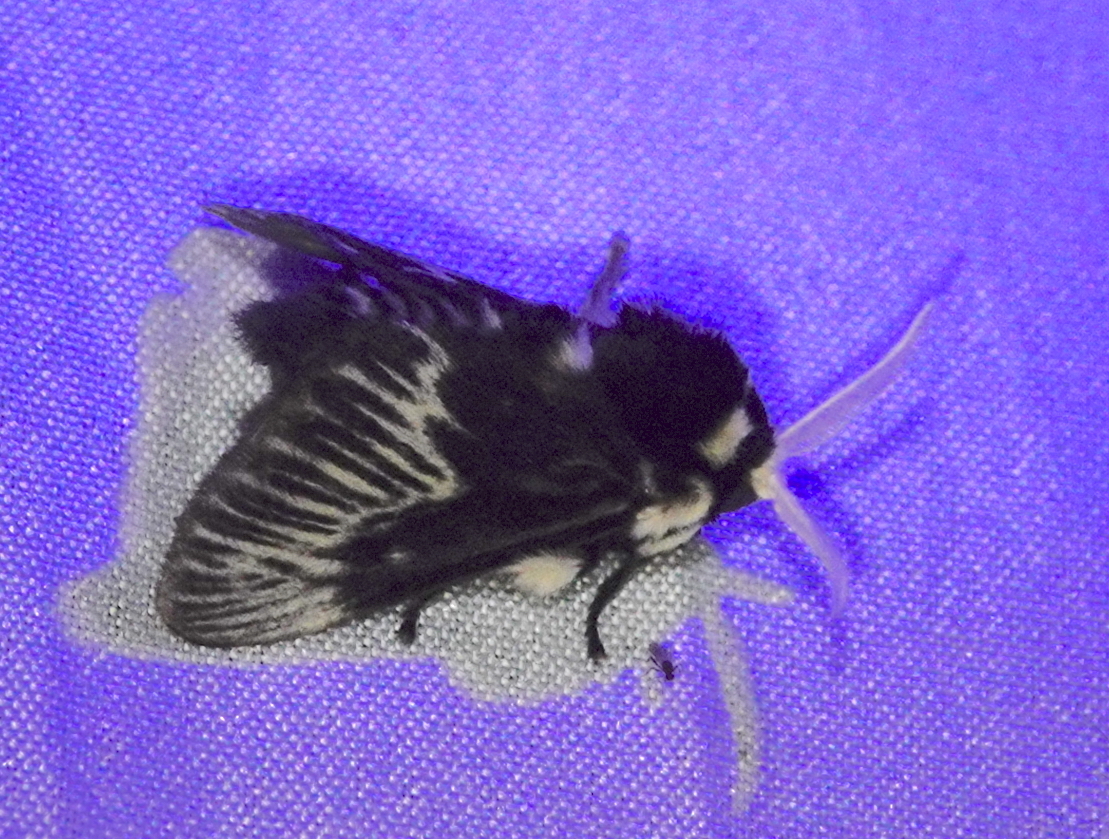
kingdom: Animalia
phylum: Arthropoda
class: Insecta
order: Lepidoptera
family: Megalopygidae
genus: Megalopyge
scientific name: Megalopyge albicollis
